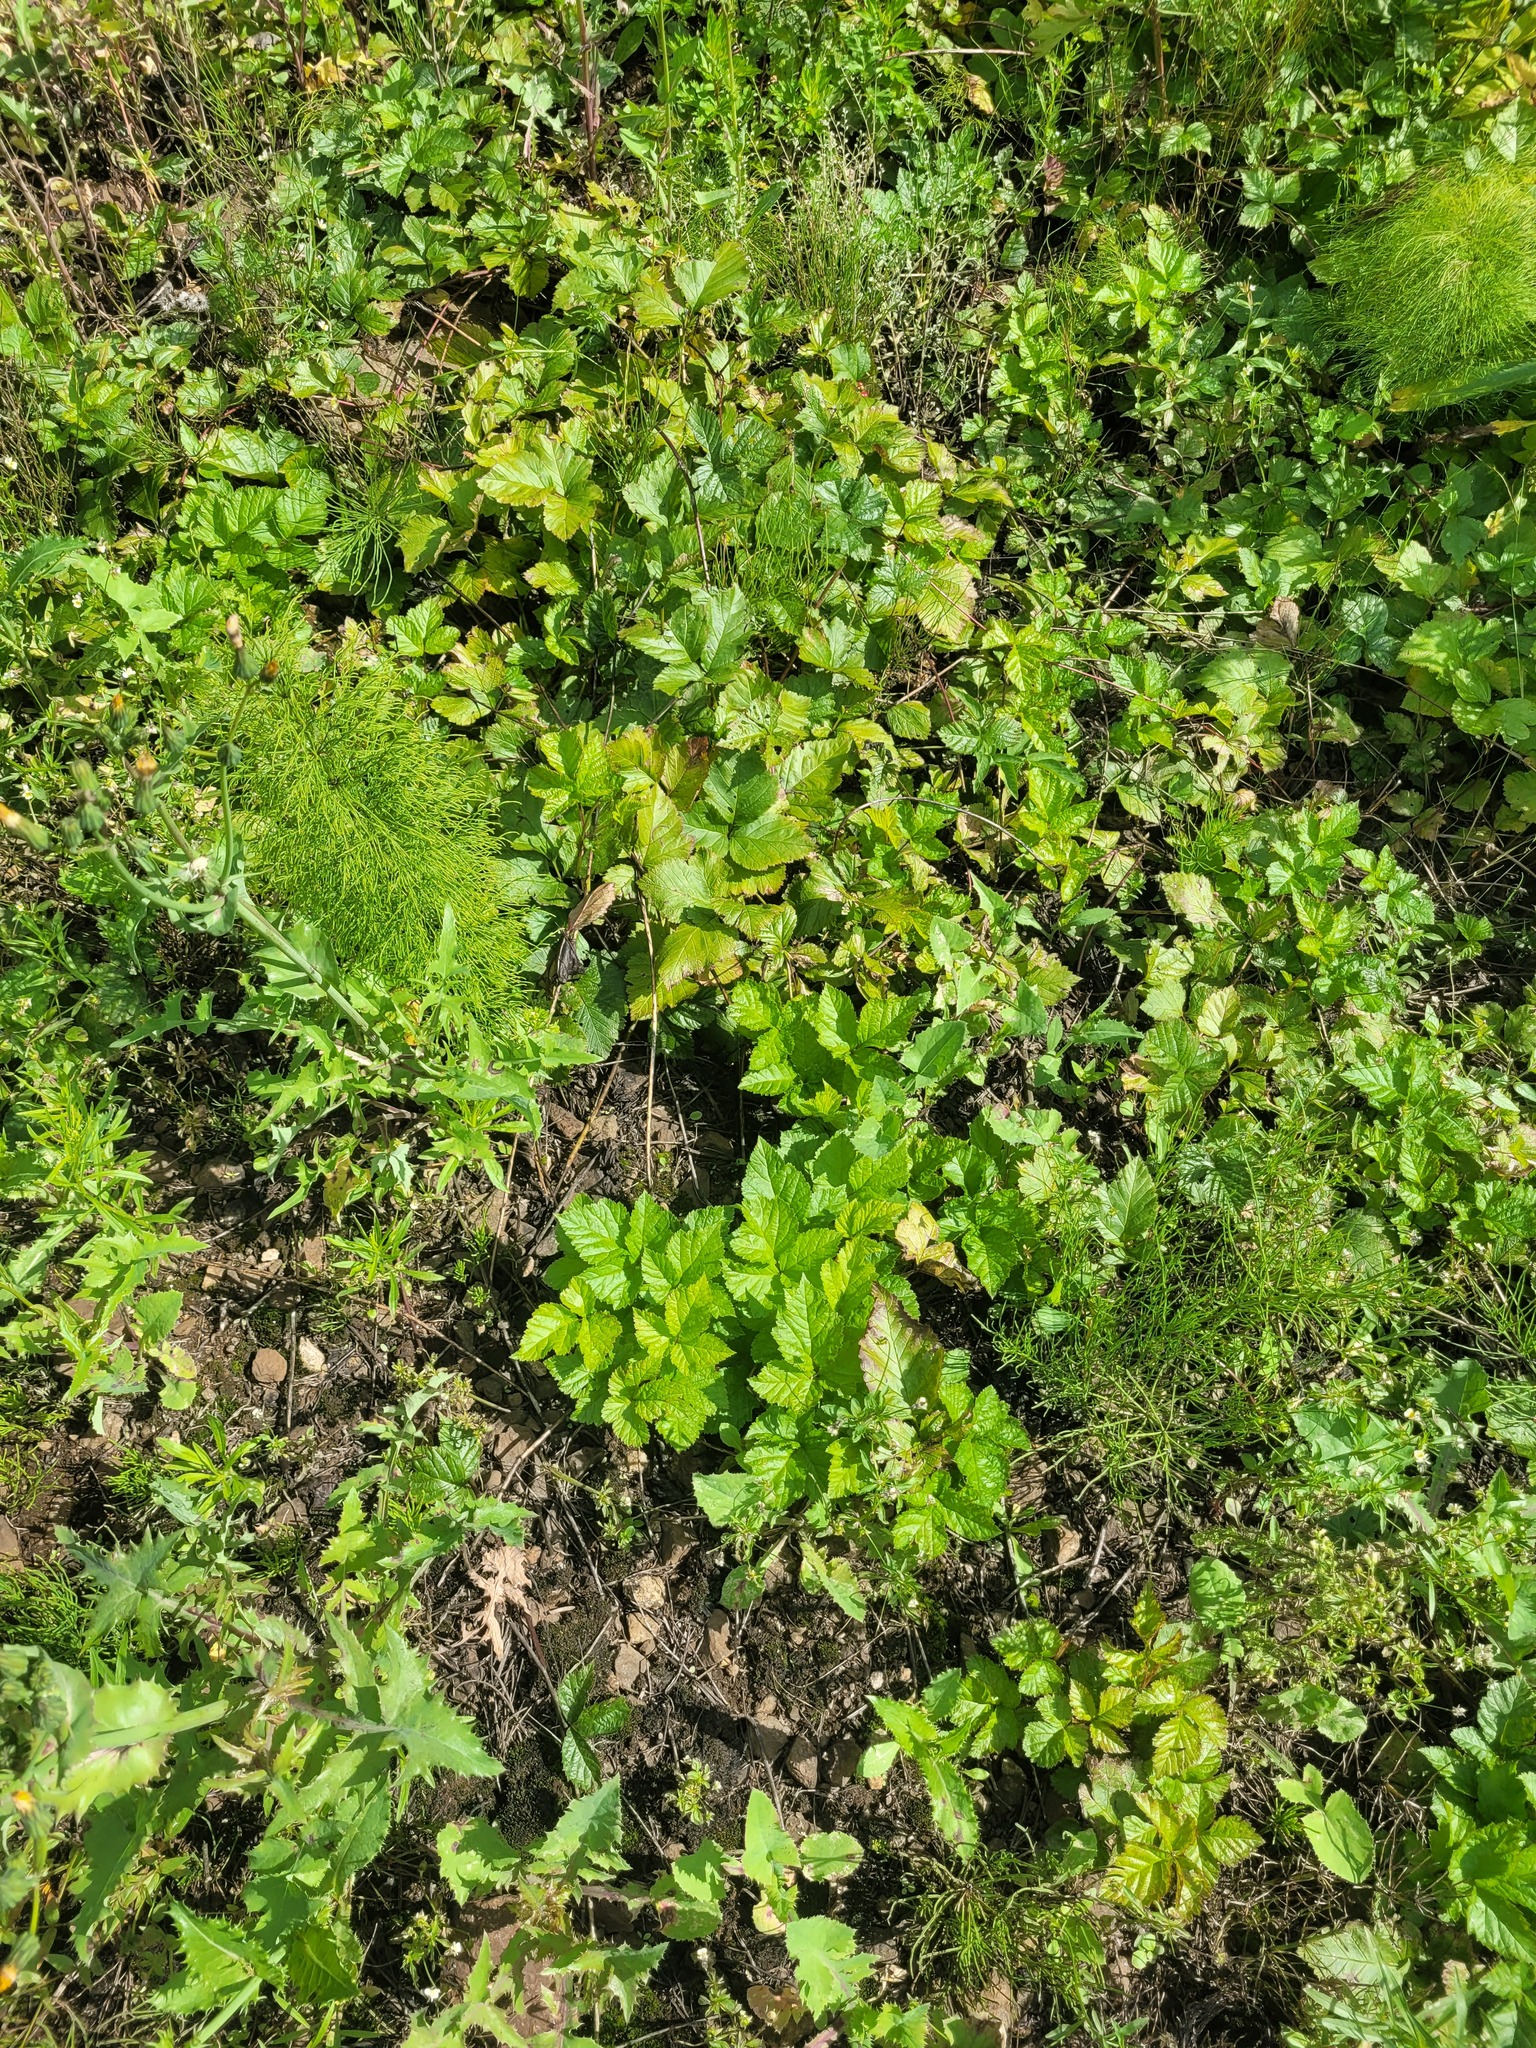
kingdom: Plantae
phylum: Tracheophyta
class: Magnoliopsida
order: Rosales
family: Rosaceae
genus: Rubus
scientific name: Rubus saxatilis
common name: Stone bramble
